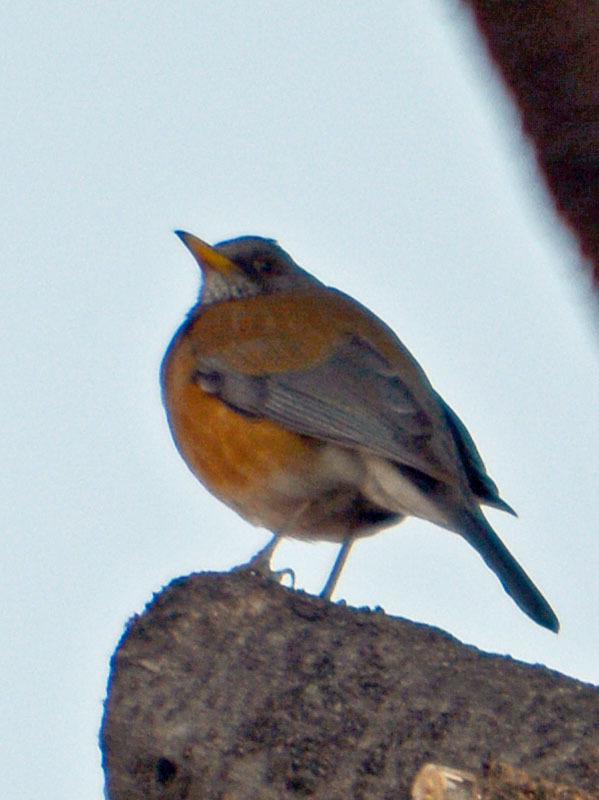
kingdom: Animalia
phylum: Chordata
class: Aves
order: Passeriformes
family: Turdidae
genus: Turdus
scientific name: Turdus rufopalliatus
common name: Rufous-backed robin
